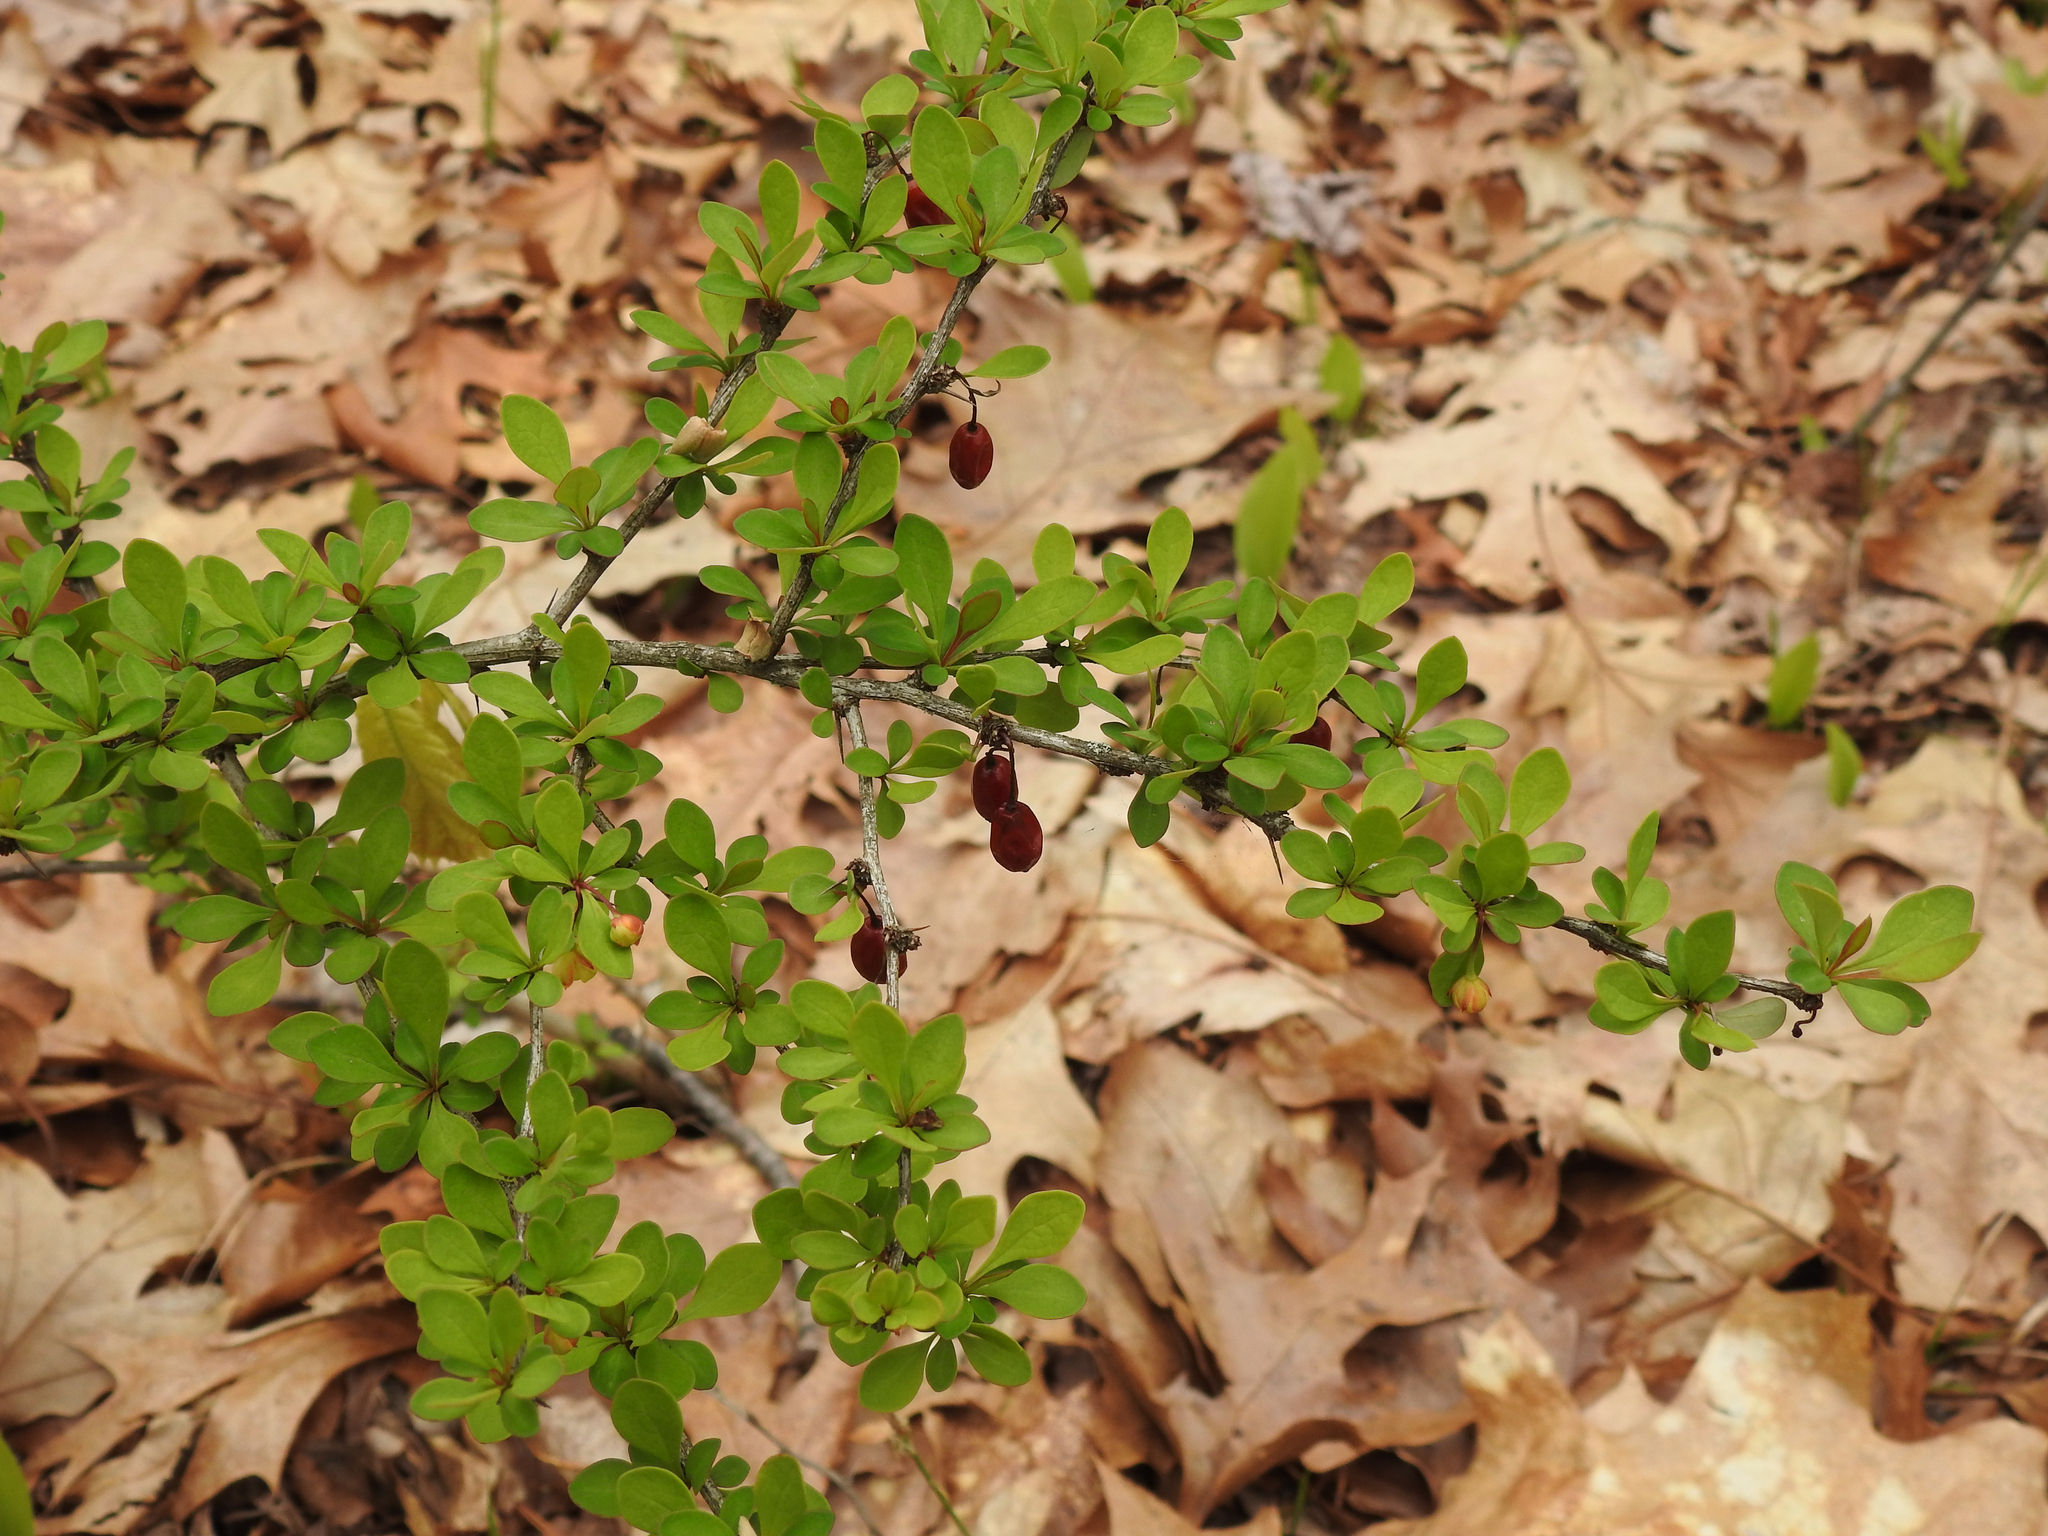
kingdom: Plantae
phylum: Tracheophyta
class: Magnoliopsida
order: Ranunculales
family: Berberidaceae
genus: Berberis
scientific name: Berberis thunbergii
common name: Japanese barberry
